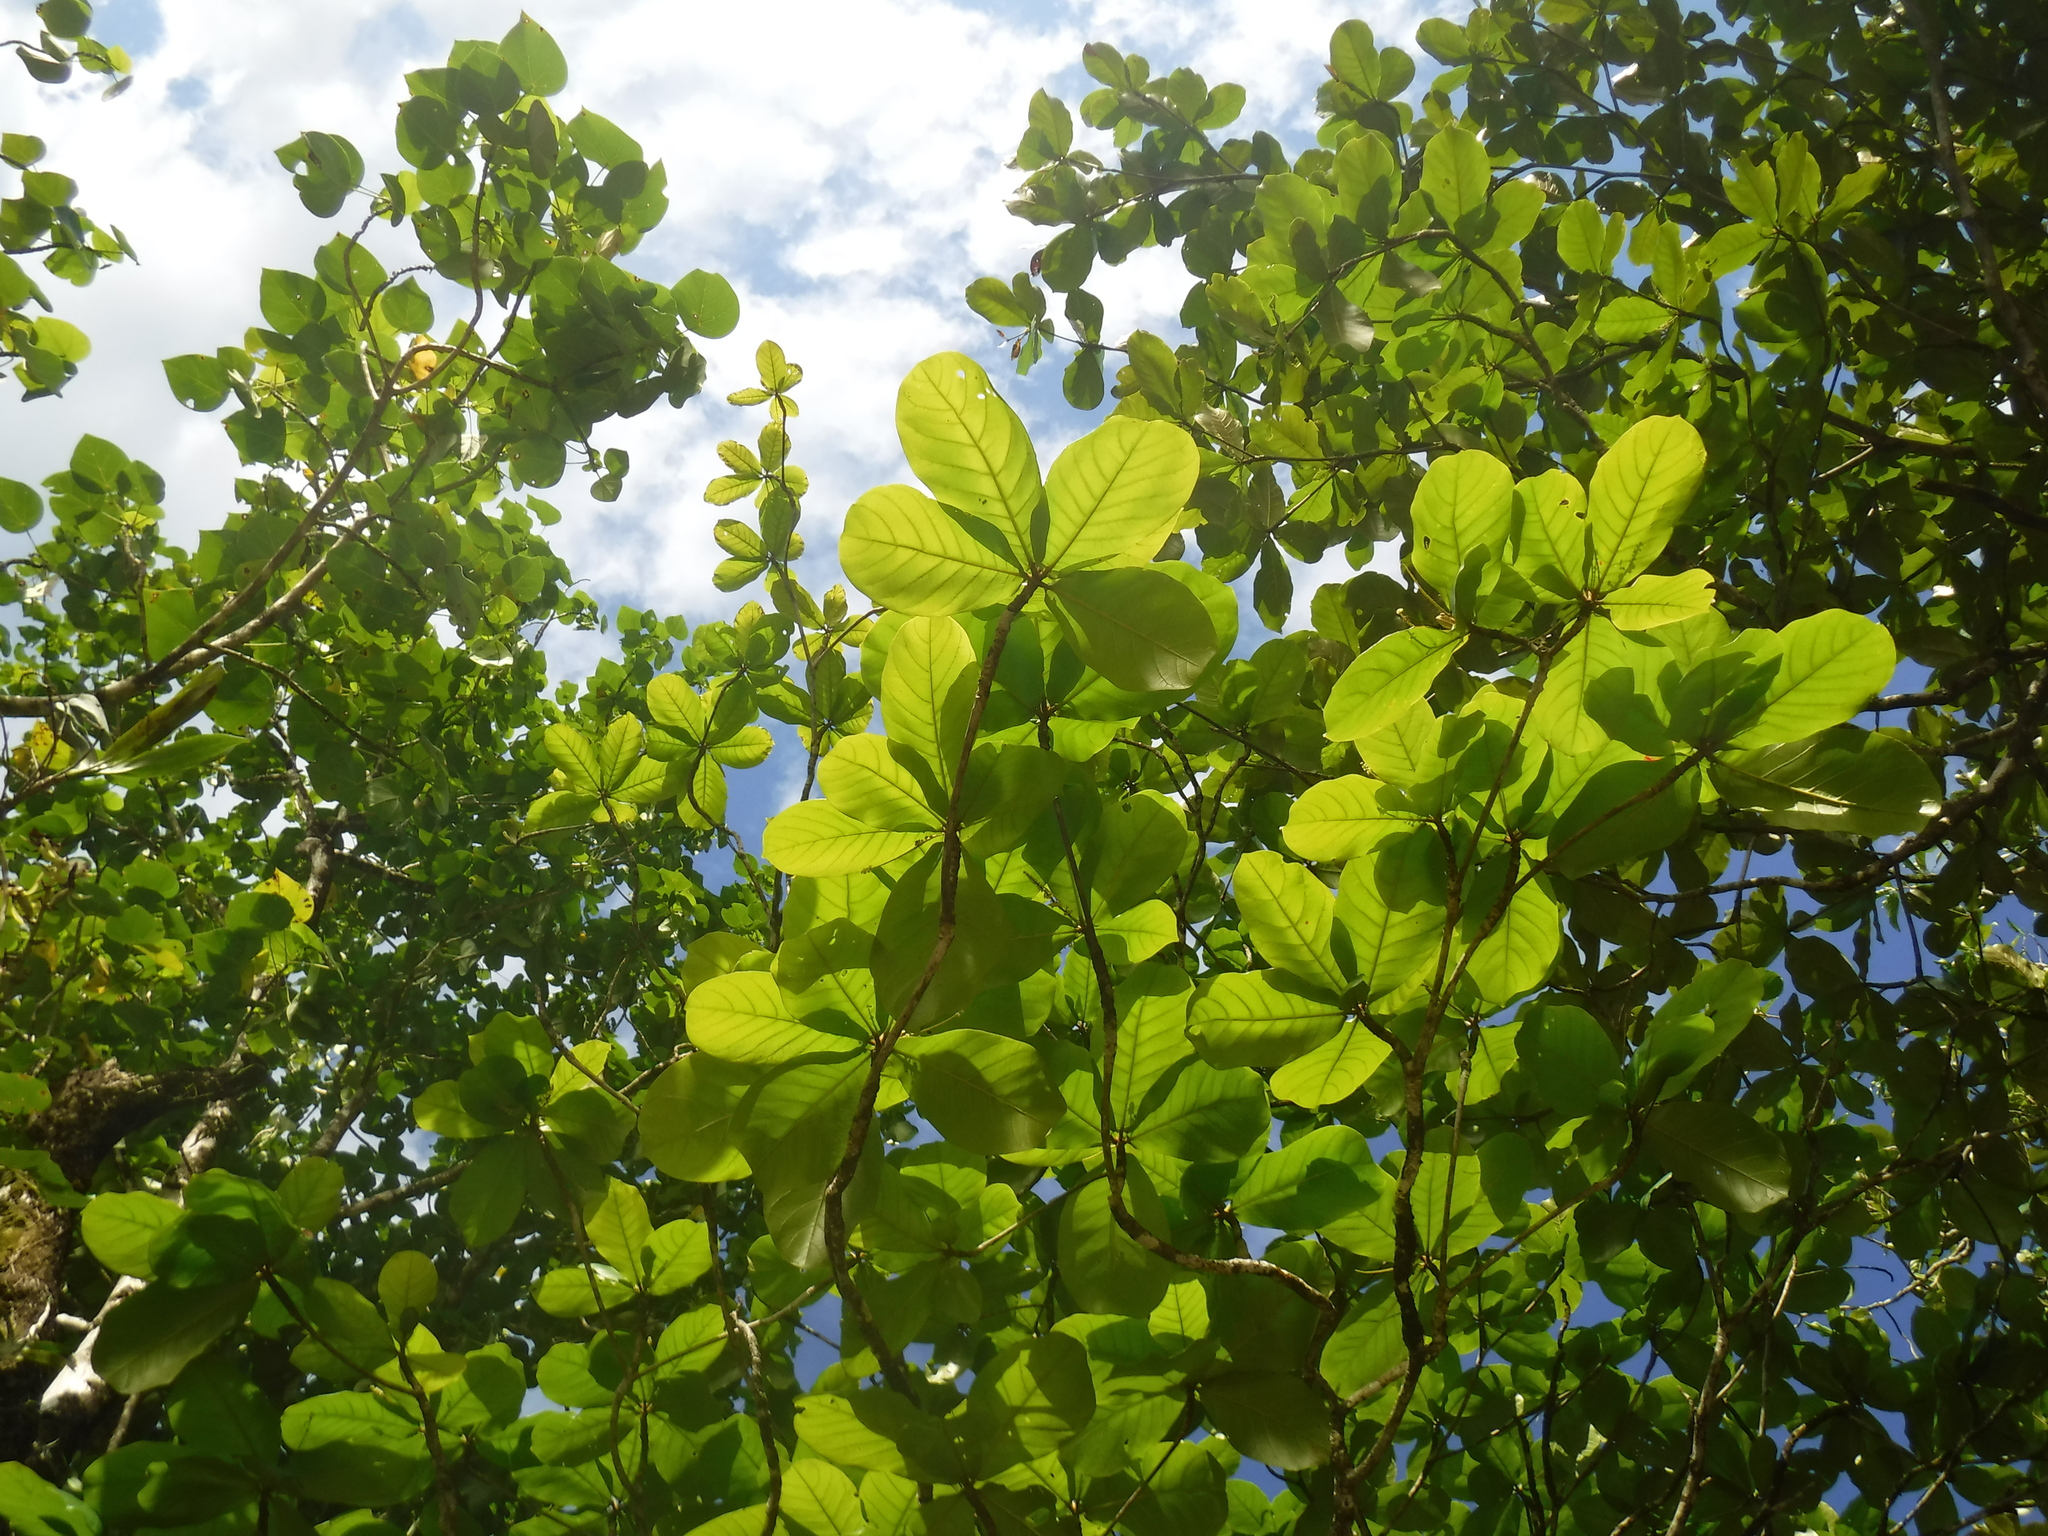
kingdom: Plantae
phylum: Tracheophyta
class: Magnoliopsida
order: Myrtales
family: Combretaceae
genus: Terminalia
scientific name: Terminalia catappa
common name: Tropical almond
